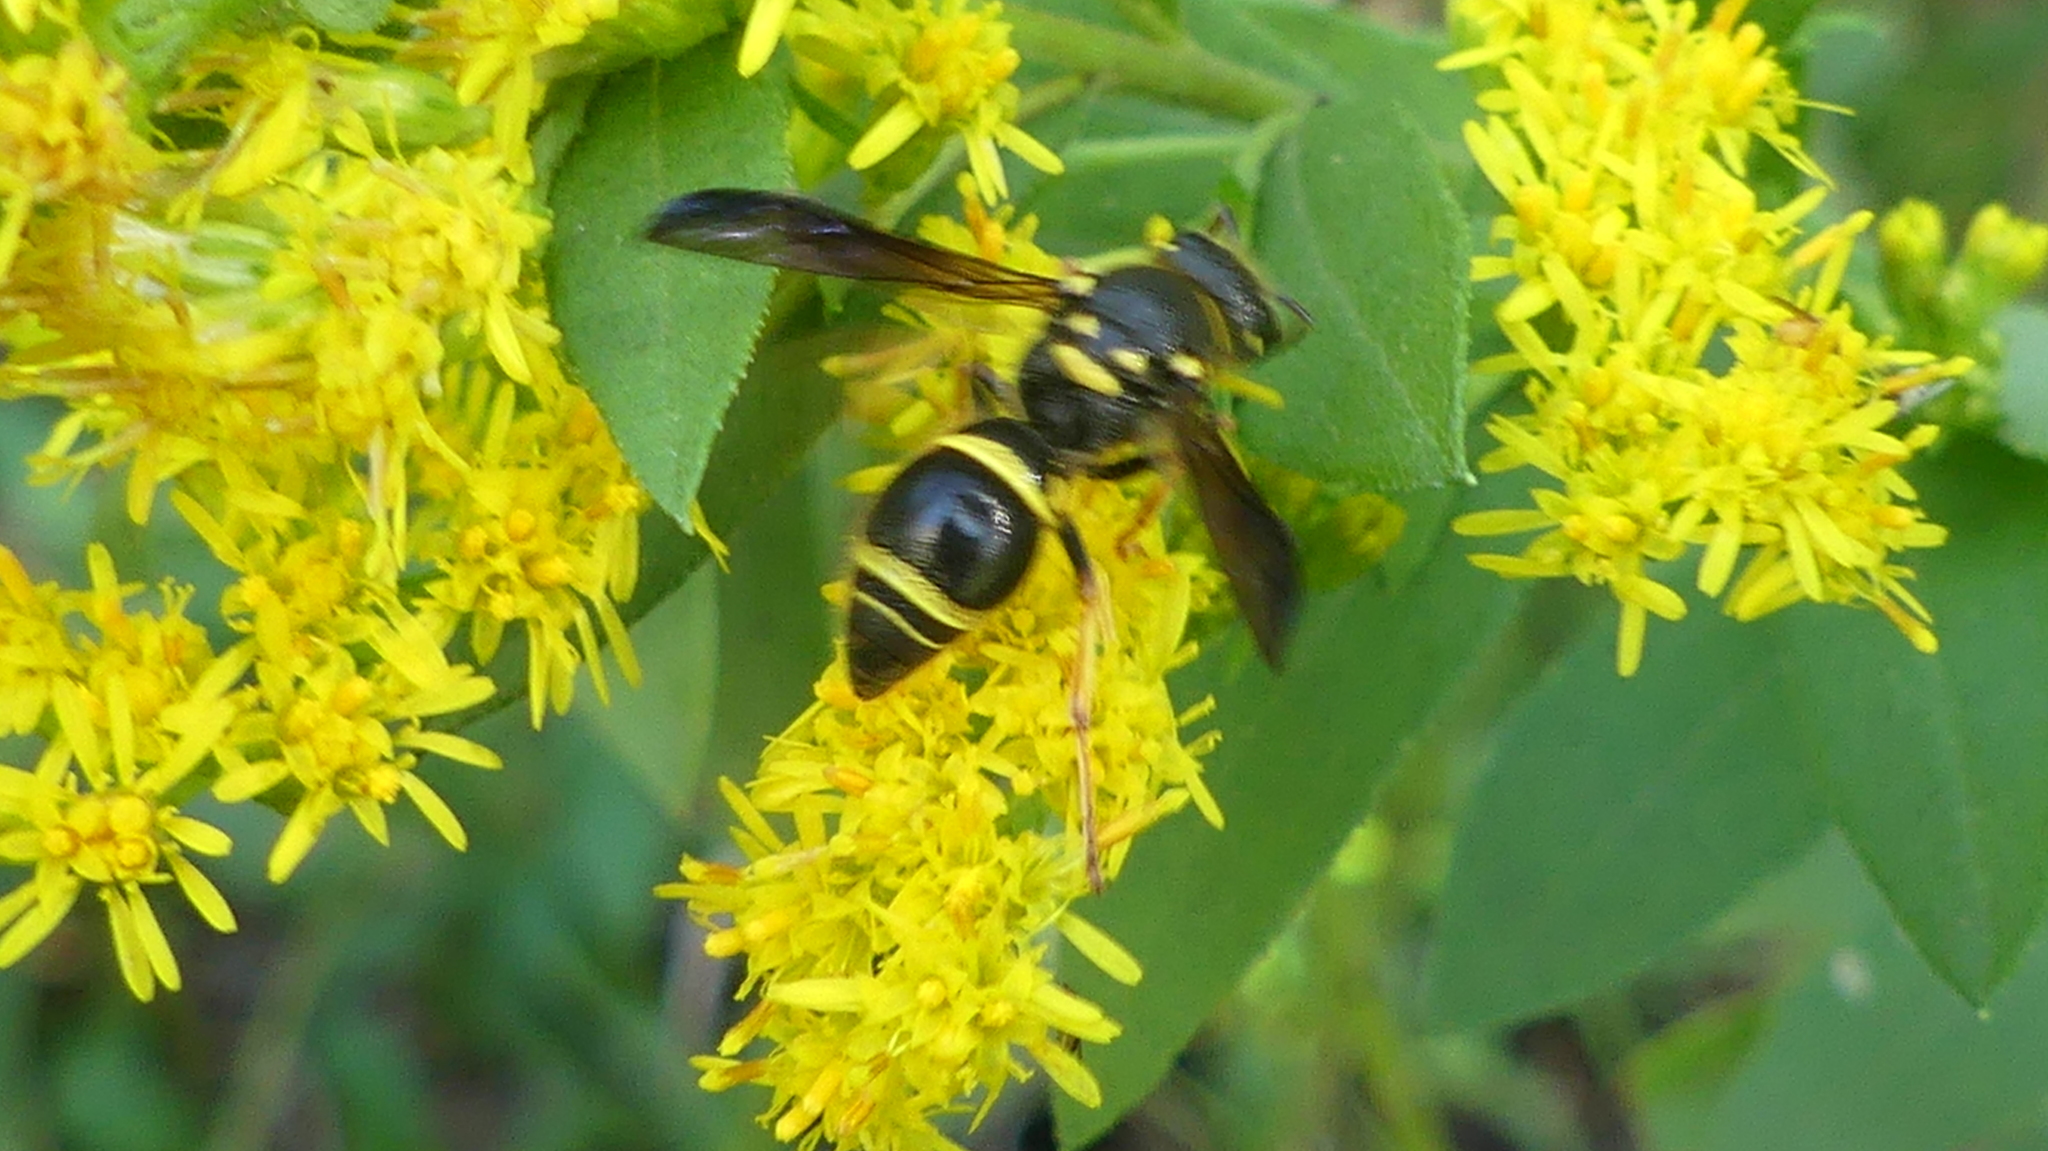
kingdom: Animalia
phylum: Arthropoda
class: Insecta
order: Hymenoptera
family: Vespidae
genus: Ancistrocerus
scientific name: Ancistrocerus campestris
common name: Smiling mason wasp
